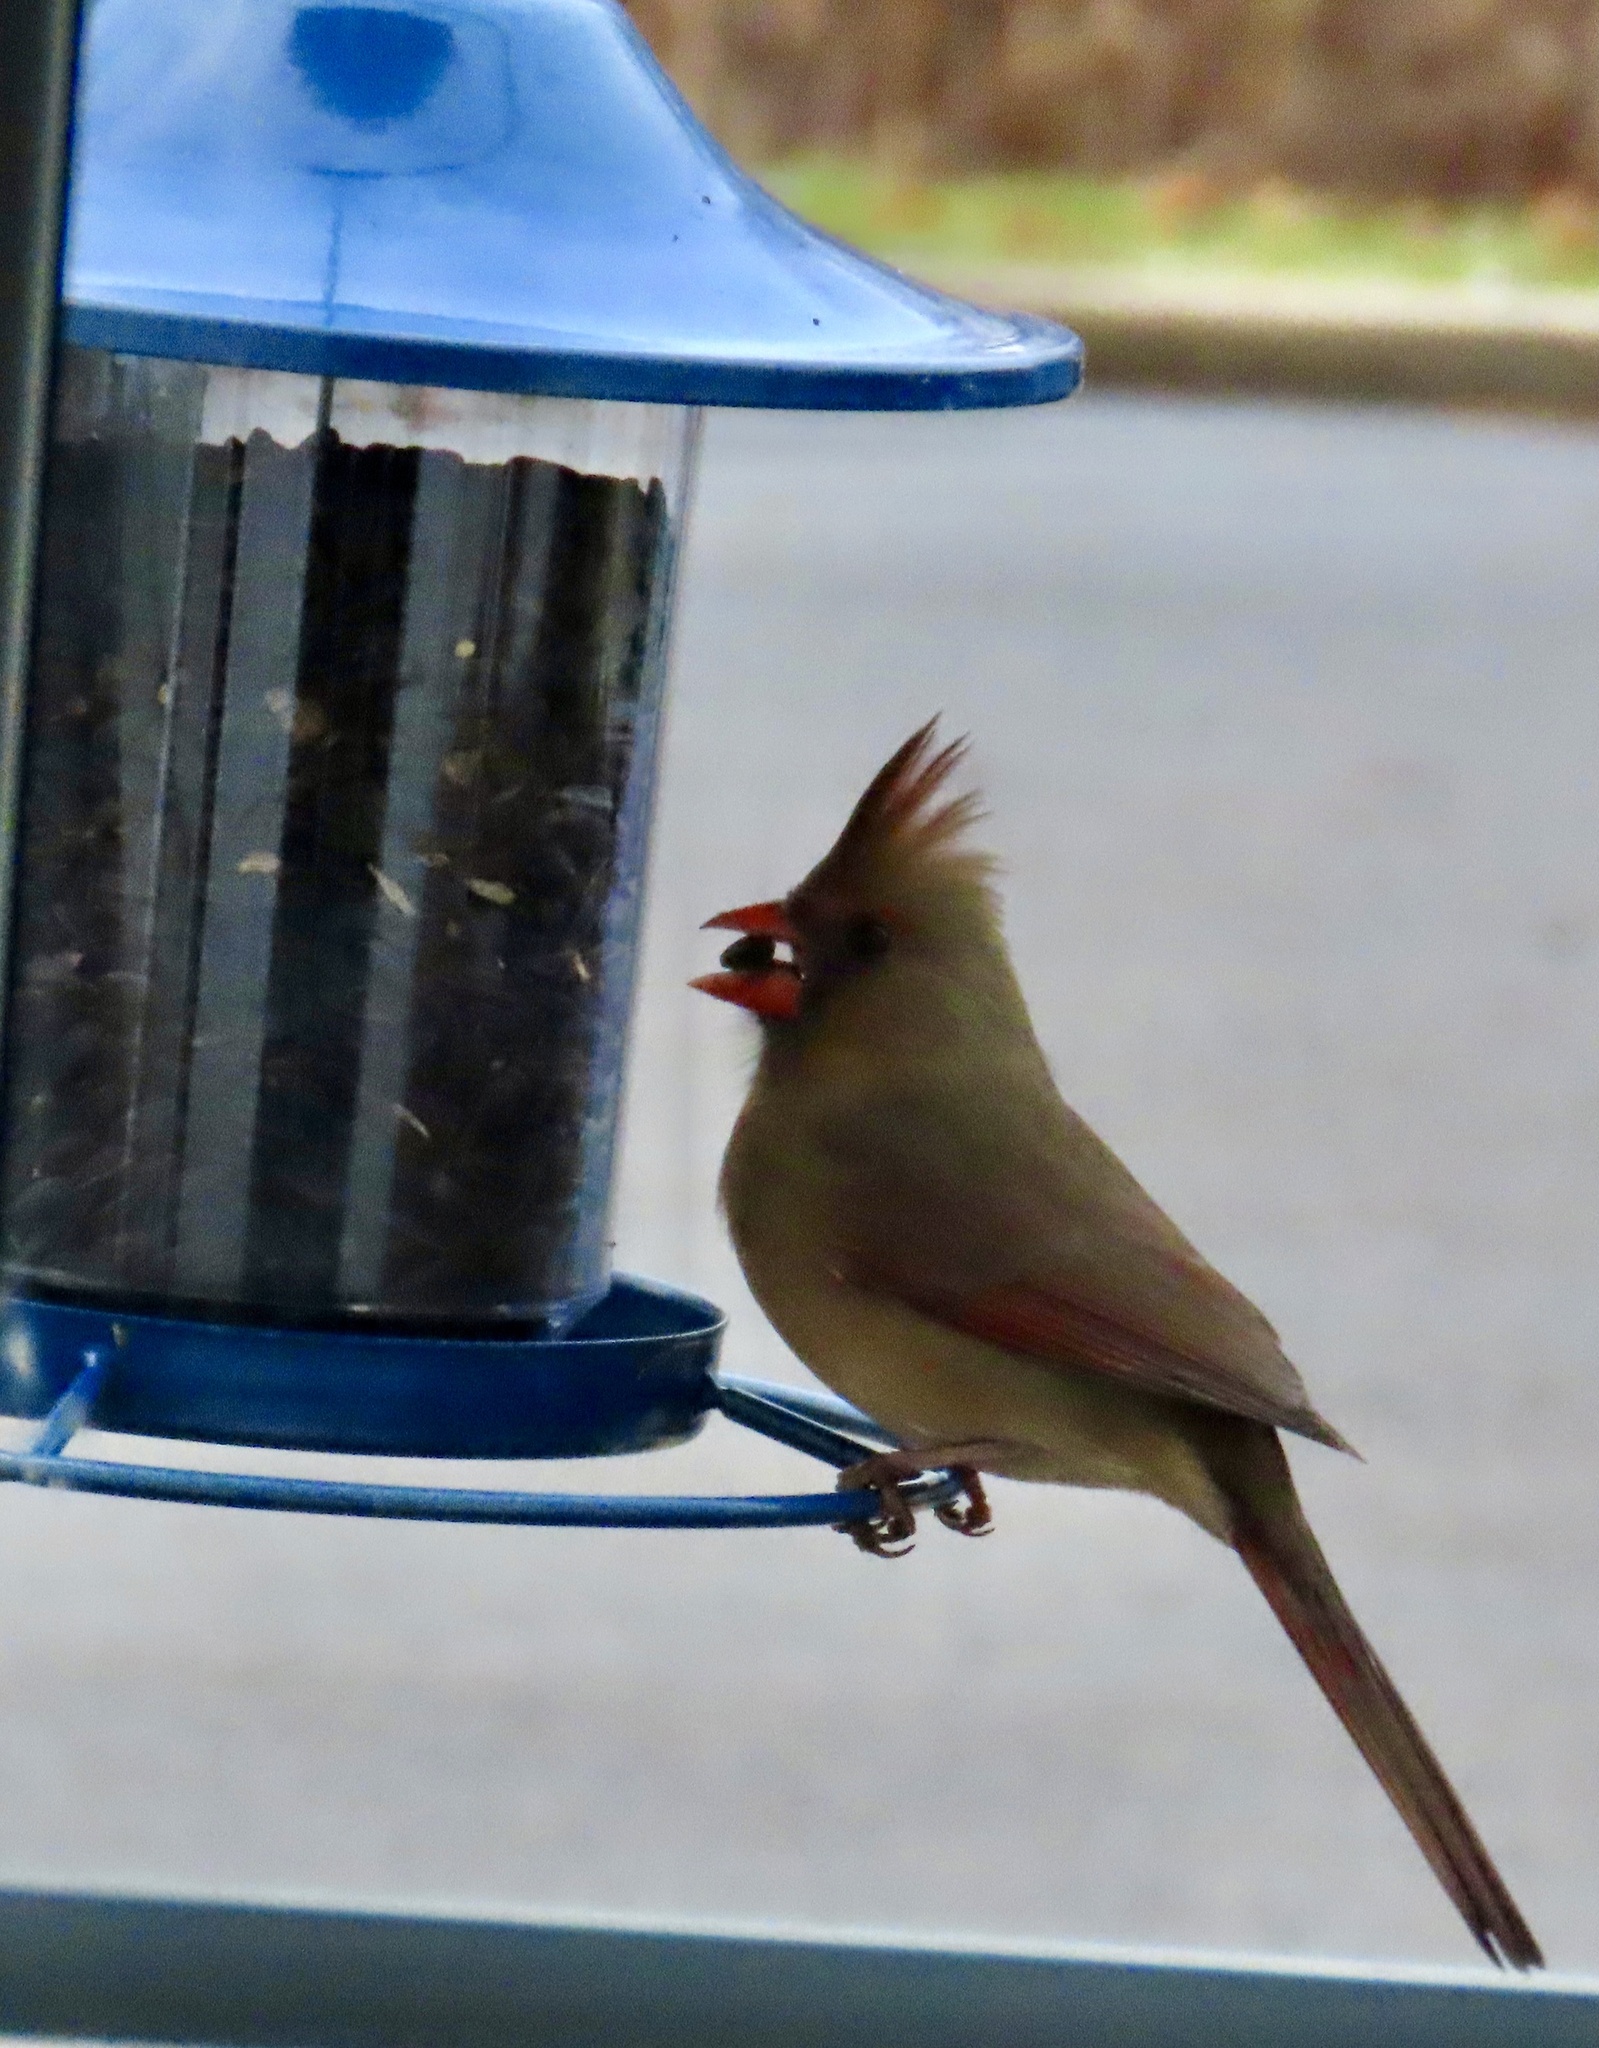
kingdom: Animalia
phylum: Chordata
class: Aves
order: Passeriformes
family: Cardinalidae
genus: Cardinalis
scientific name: Cardinalis cardinalis
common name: Northern cardinal
